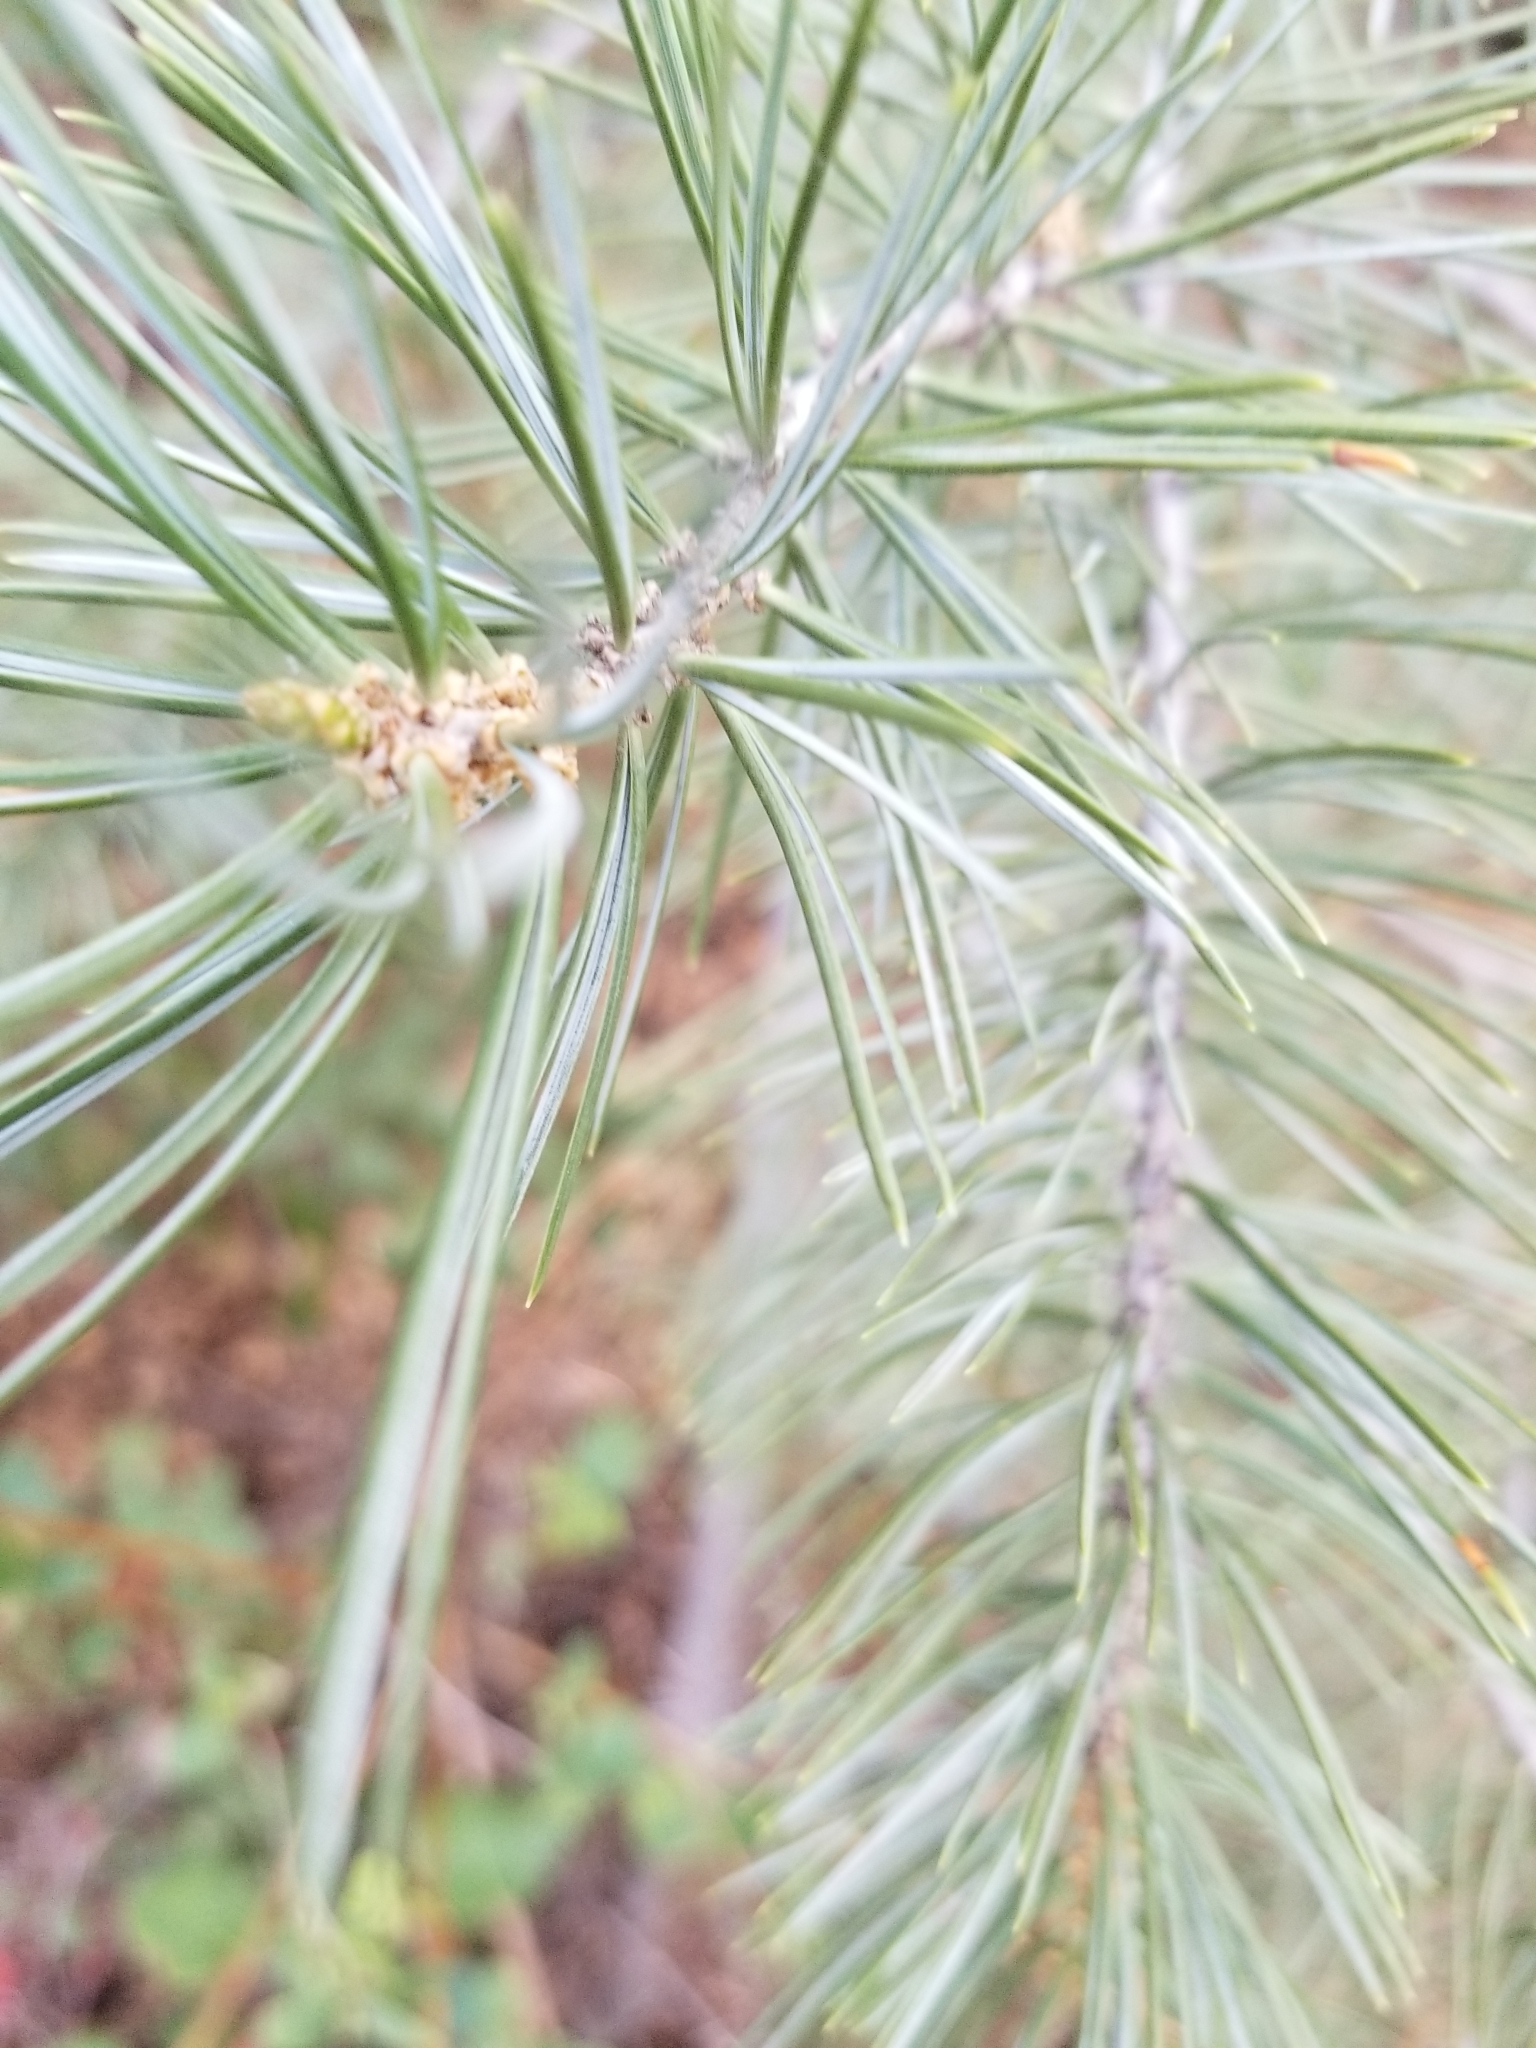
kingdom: Plantae
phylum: Tracheophyta
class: Pinopsida
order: Pinales
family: Pinaceae
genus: Pinus
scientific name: Pinus quadrifolia
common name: Parry pinyon
